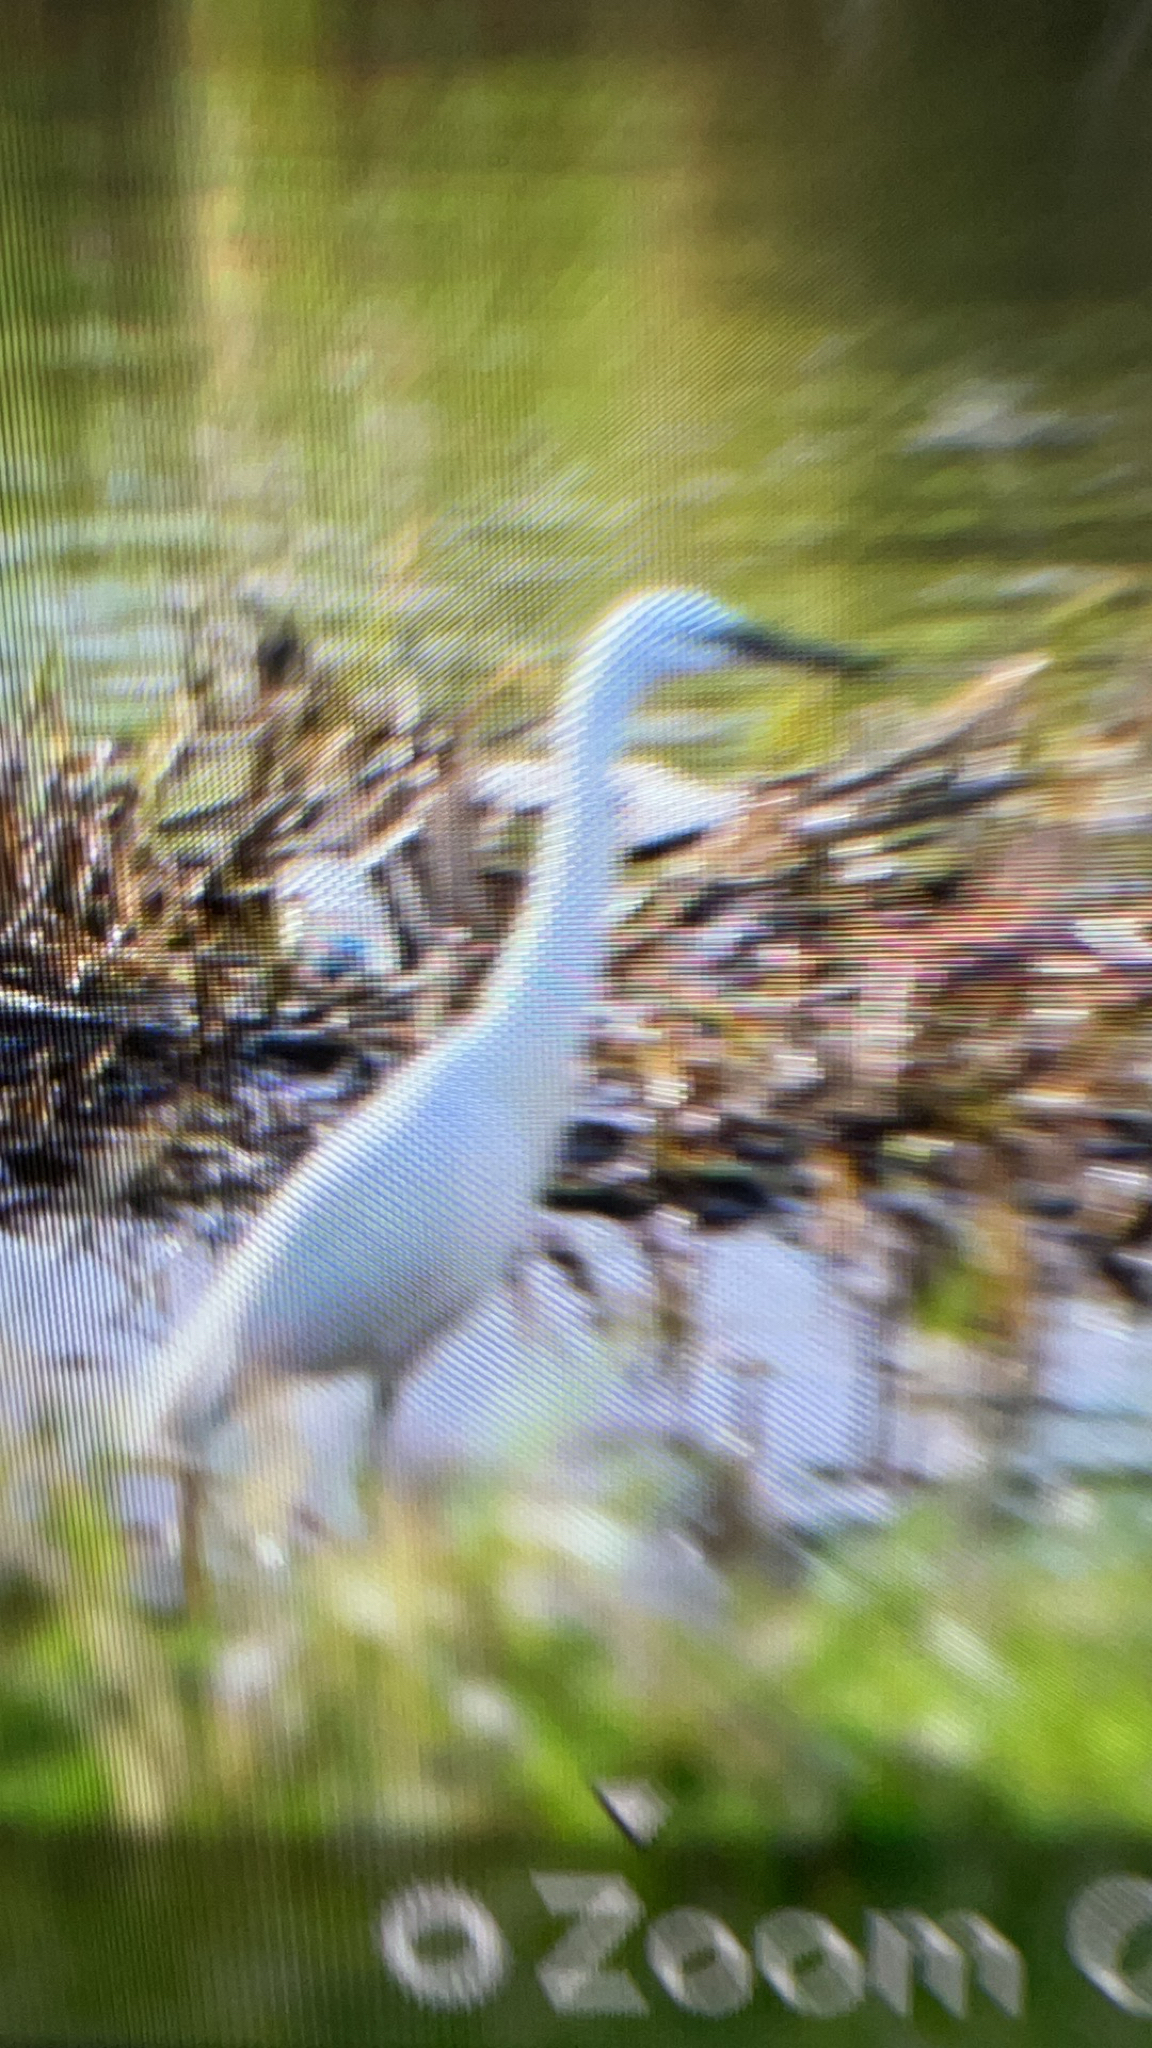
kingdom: Animalia
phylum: Chordata
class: Aves
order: Pelecaniformes
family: Ardeidae
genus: Egretta
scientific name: Egretta garzetta
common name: Little egret
